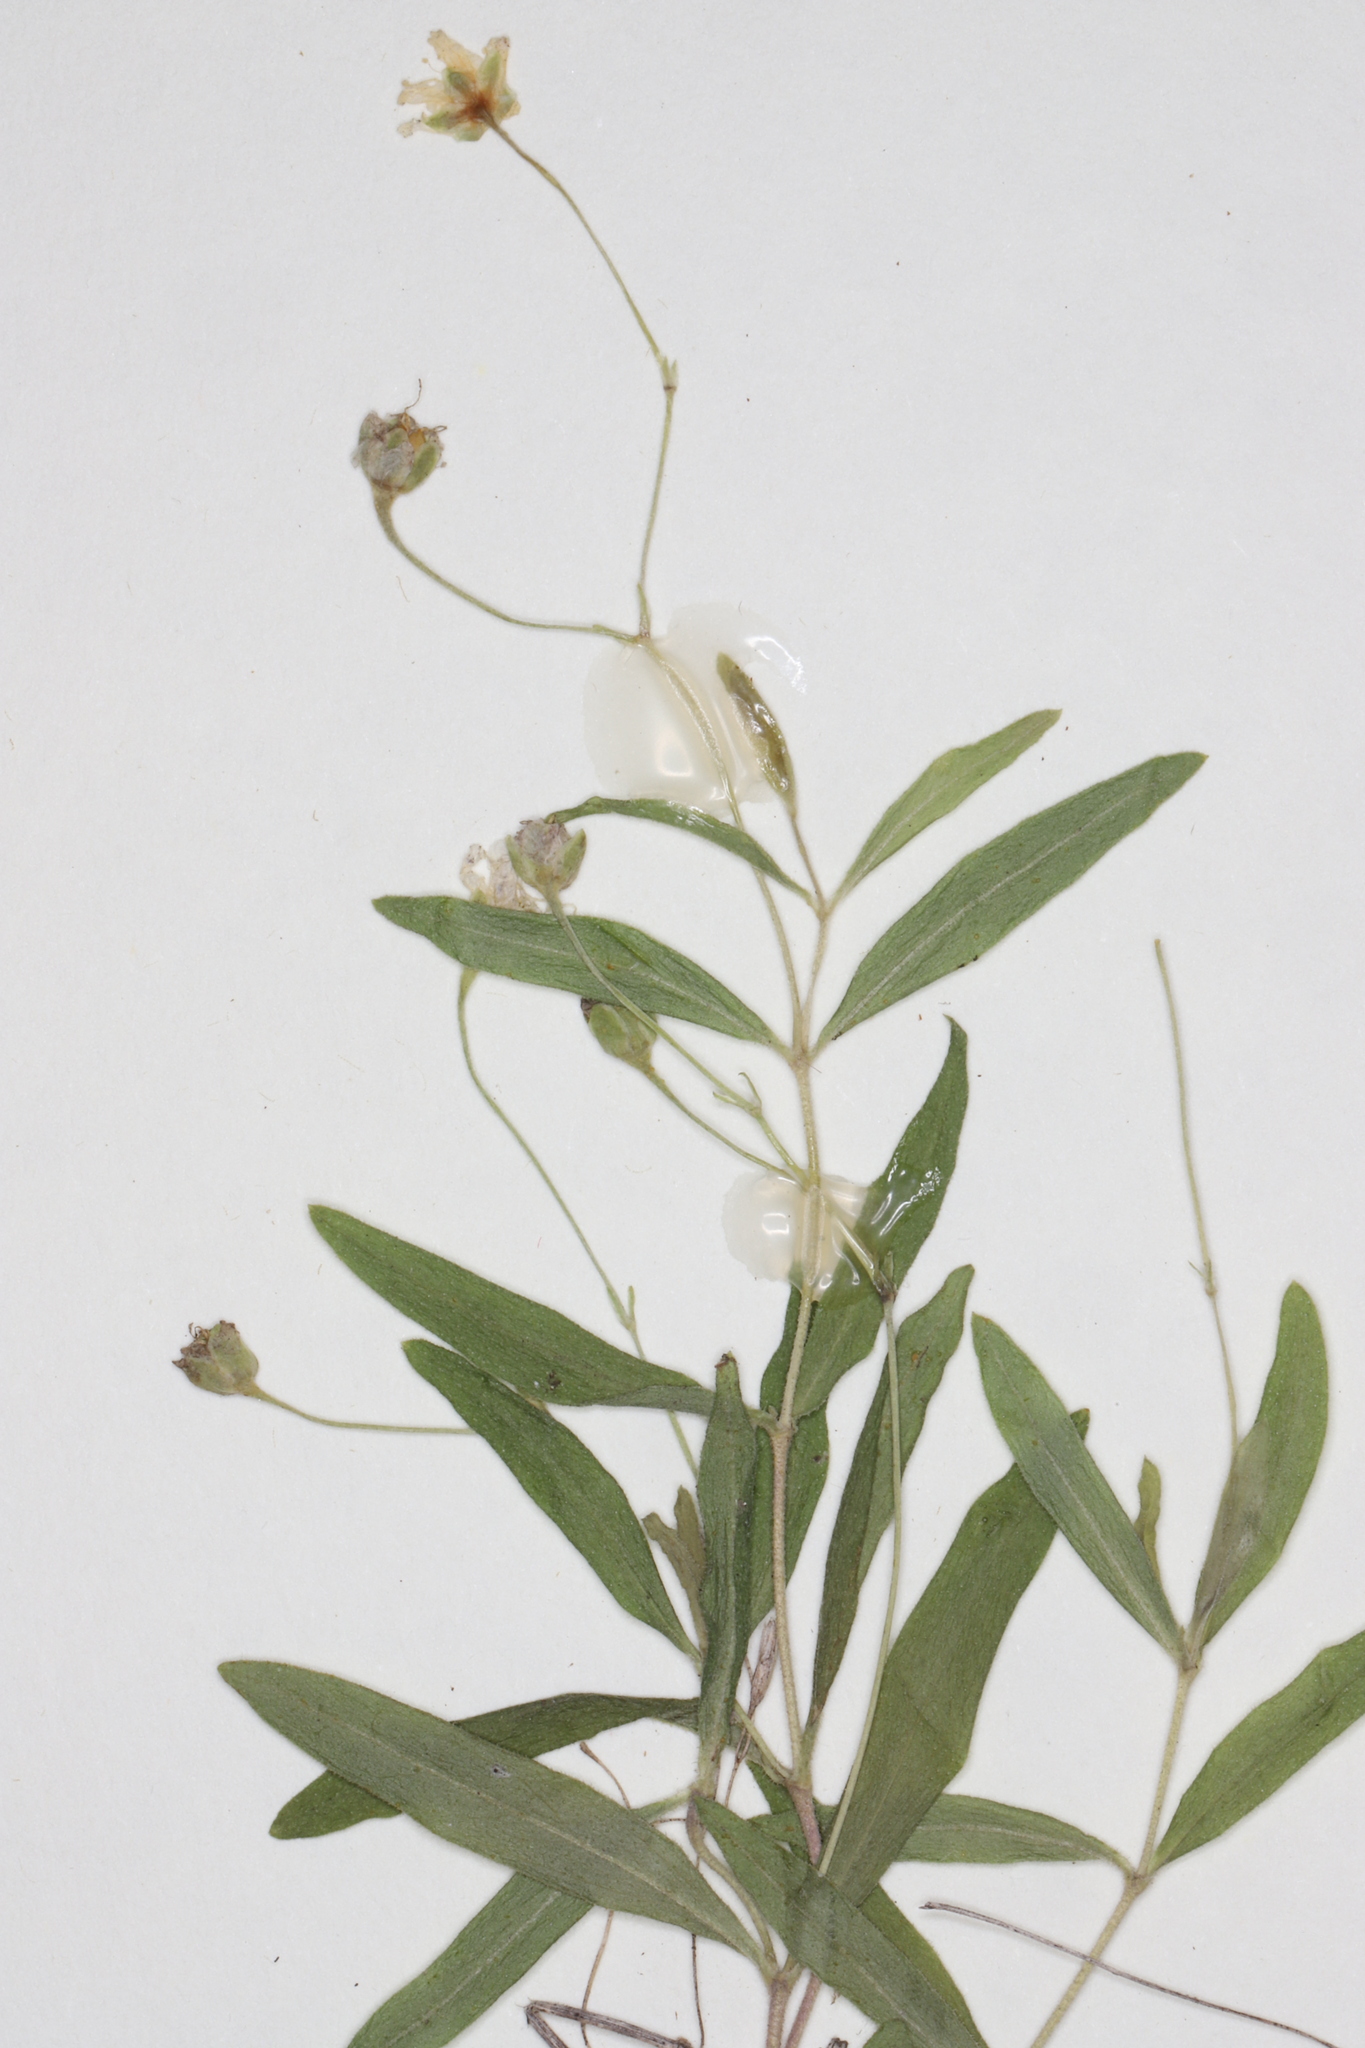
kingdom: Plantae
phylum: Tracheophyta
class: Magnoliopsida
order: Caryophyllales
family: Caryophyllaceae
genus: Moehringia
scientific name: Moehringia lateriflora
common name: Blunt-leaved sandwort
